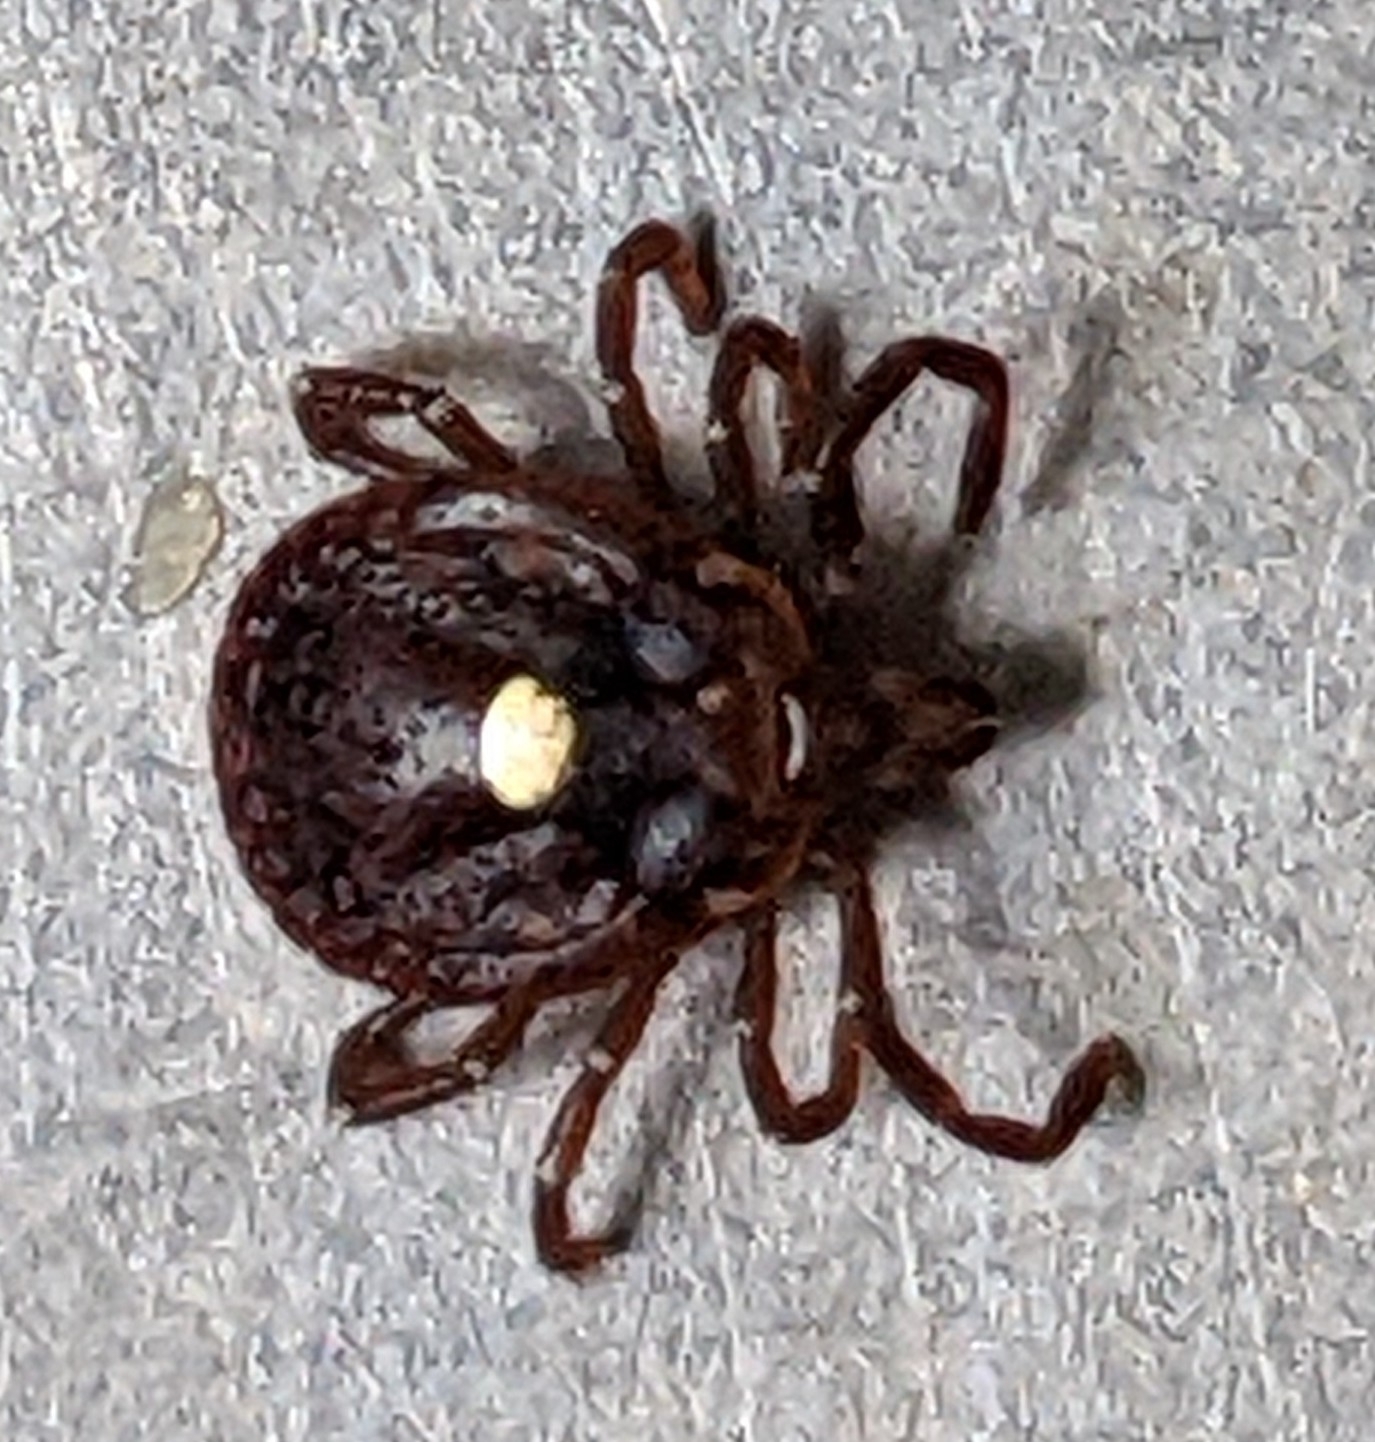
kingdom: Animalia
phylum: Arthropoda
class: Arachnida
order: Ixodida
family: Ixodidae
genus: Amblyomma
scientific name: Amblyomma americanum
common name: Lone star tick
